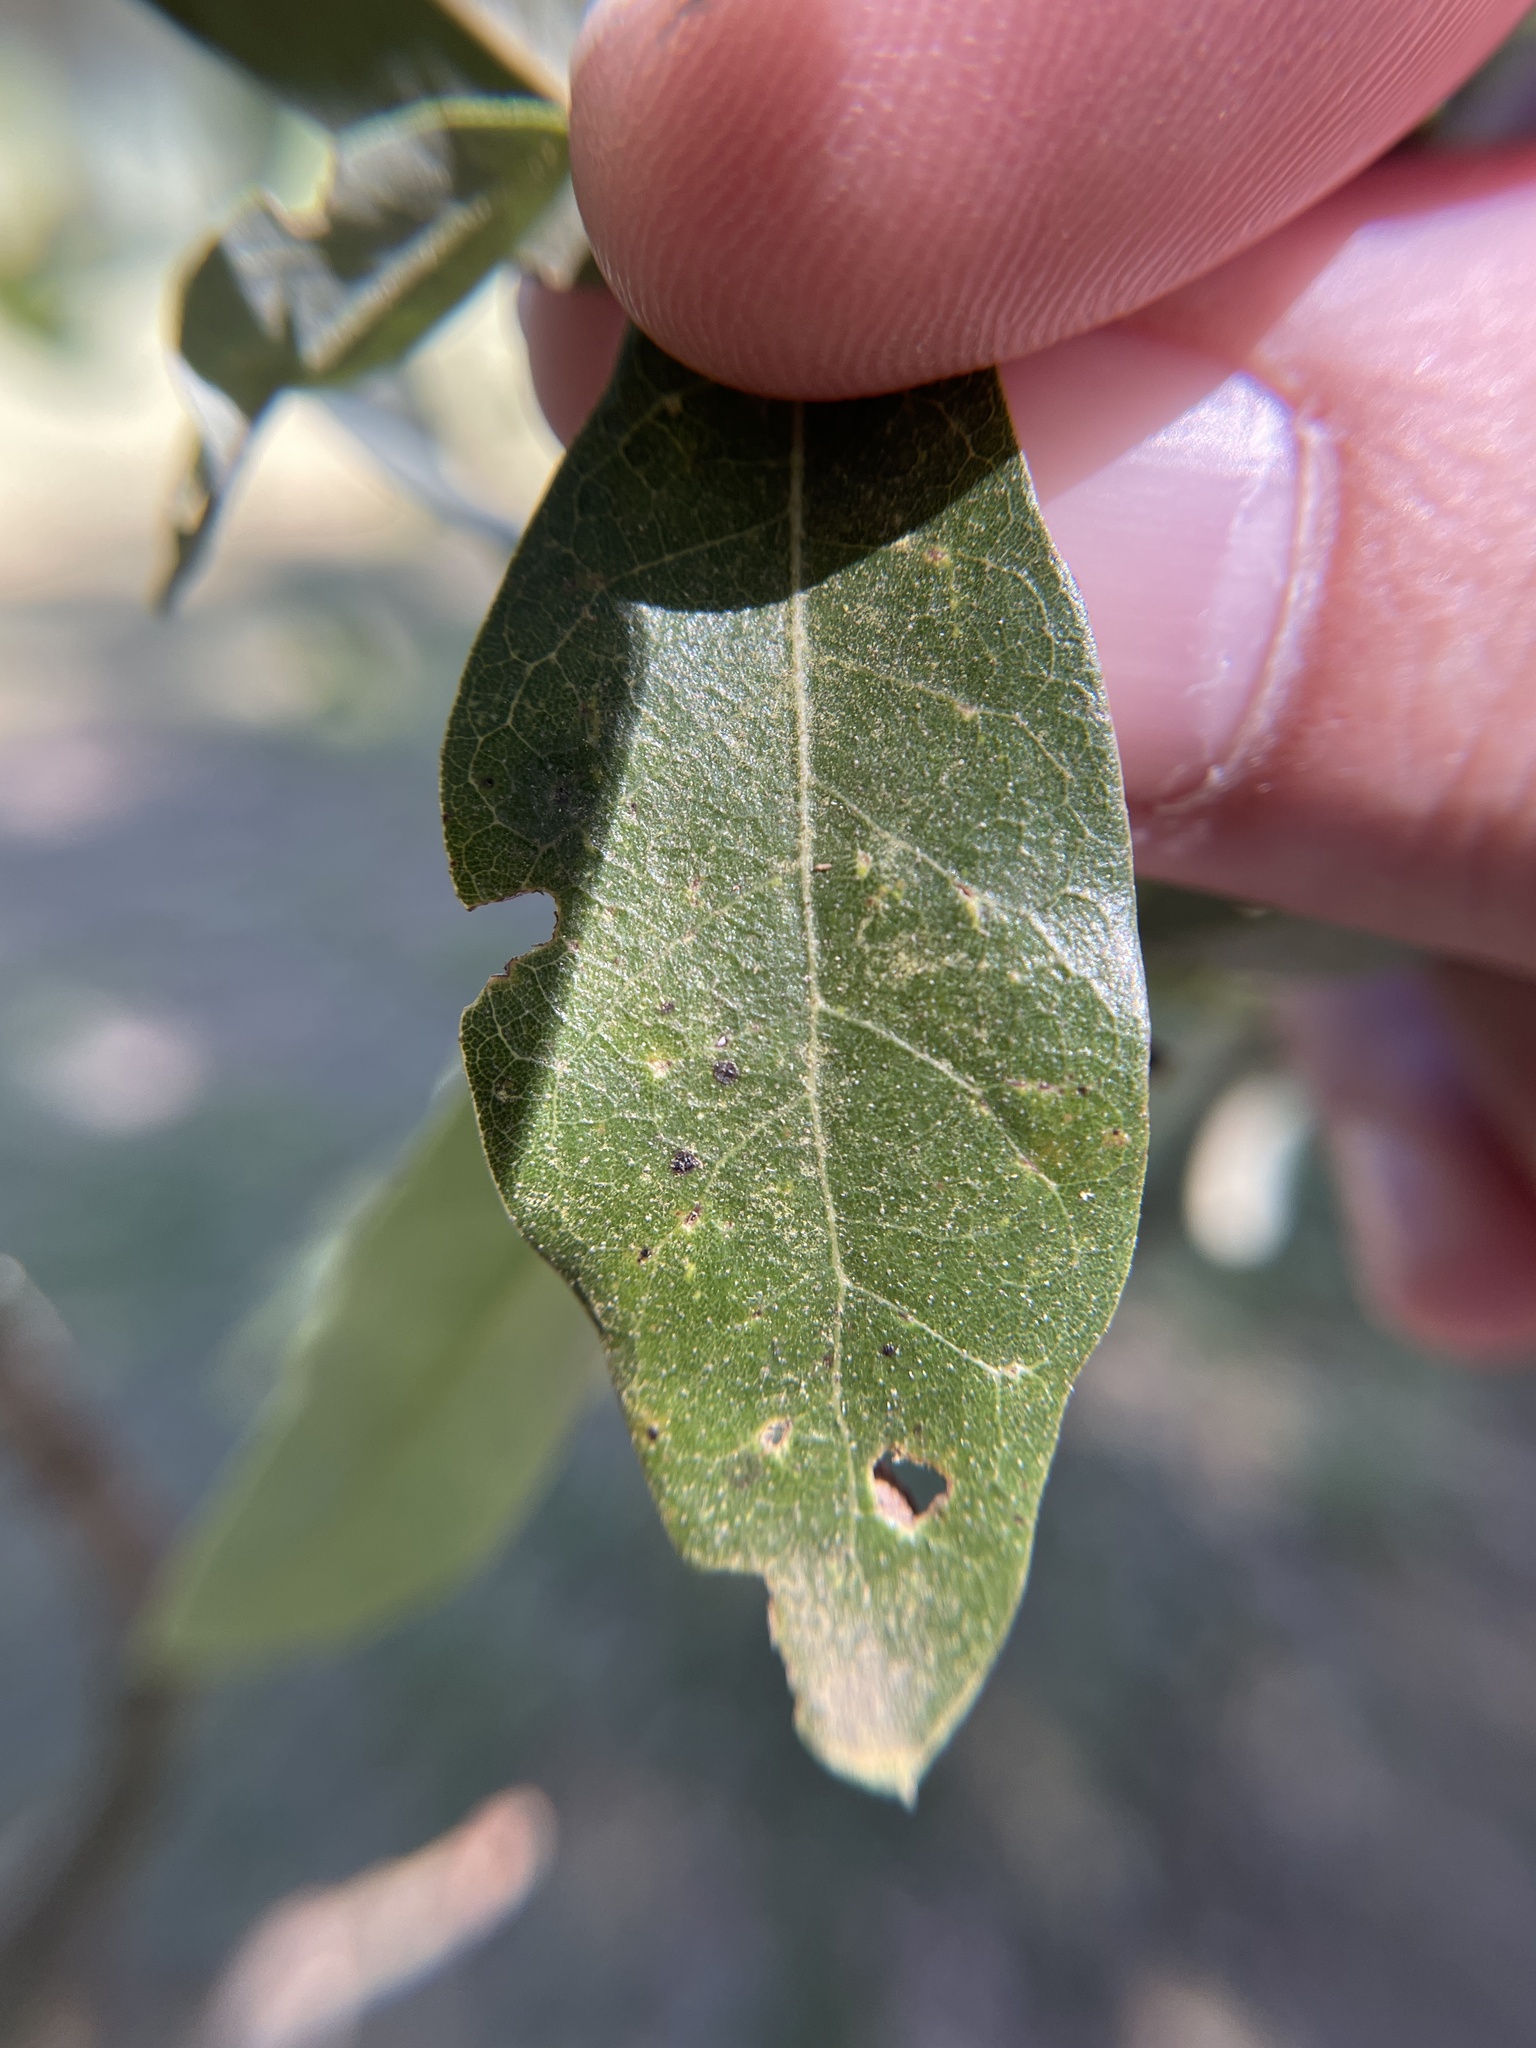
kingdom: Animalia
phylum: Arthropoda
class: Insecta
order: Hymenoptera
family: Cynipidae
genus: Belonocnema
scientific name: Belonocnema kinseyi
